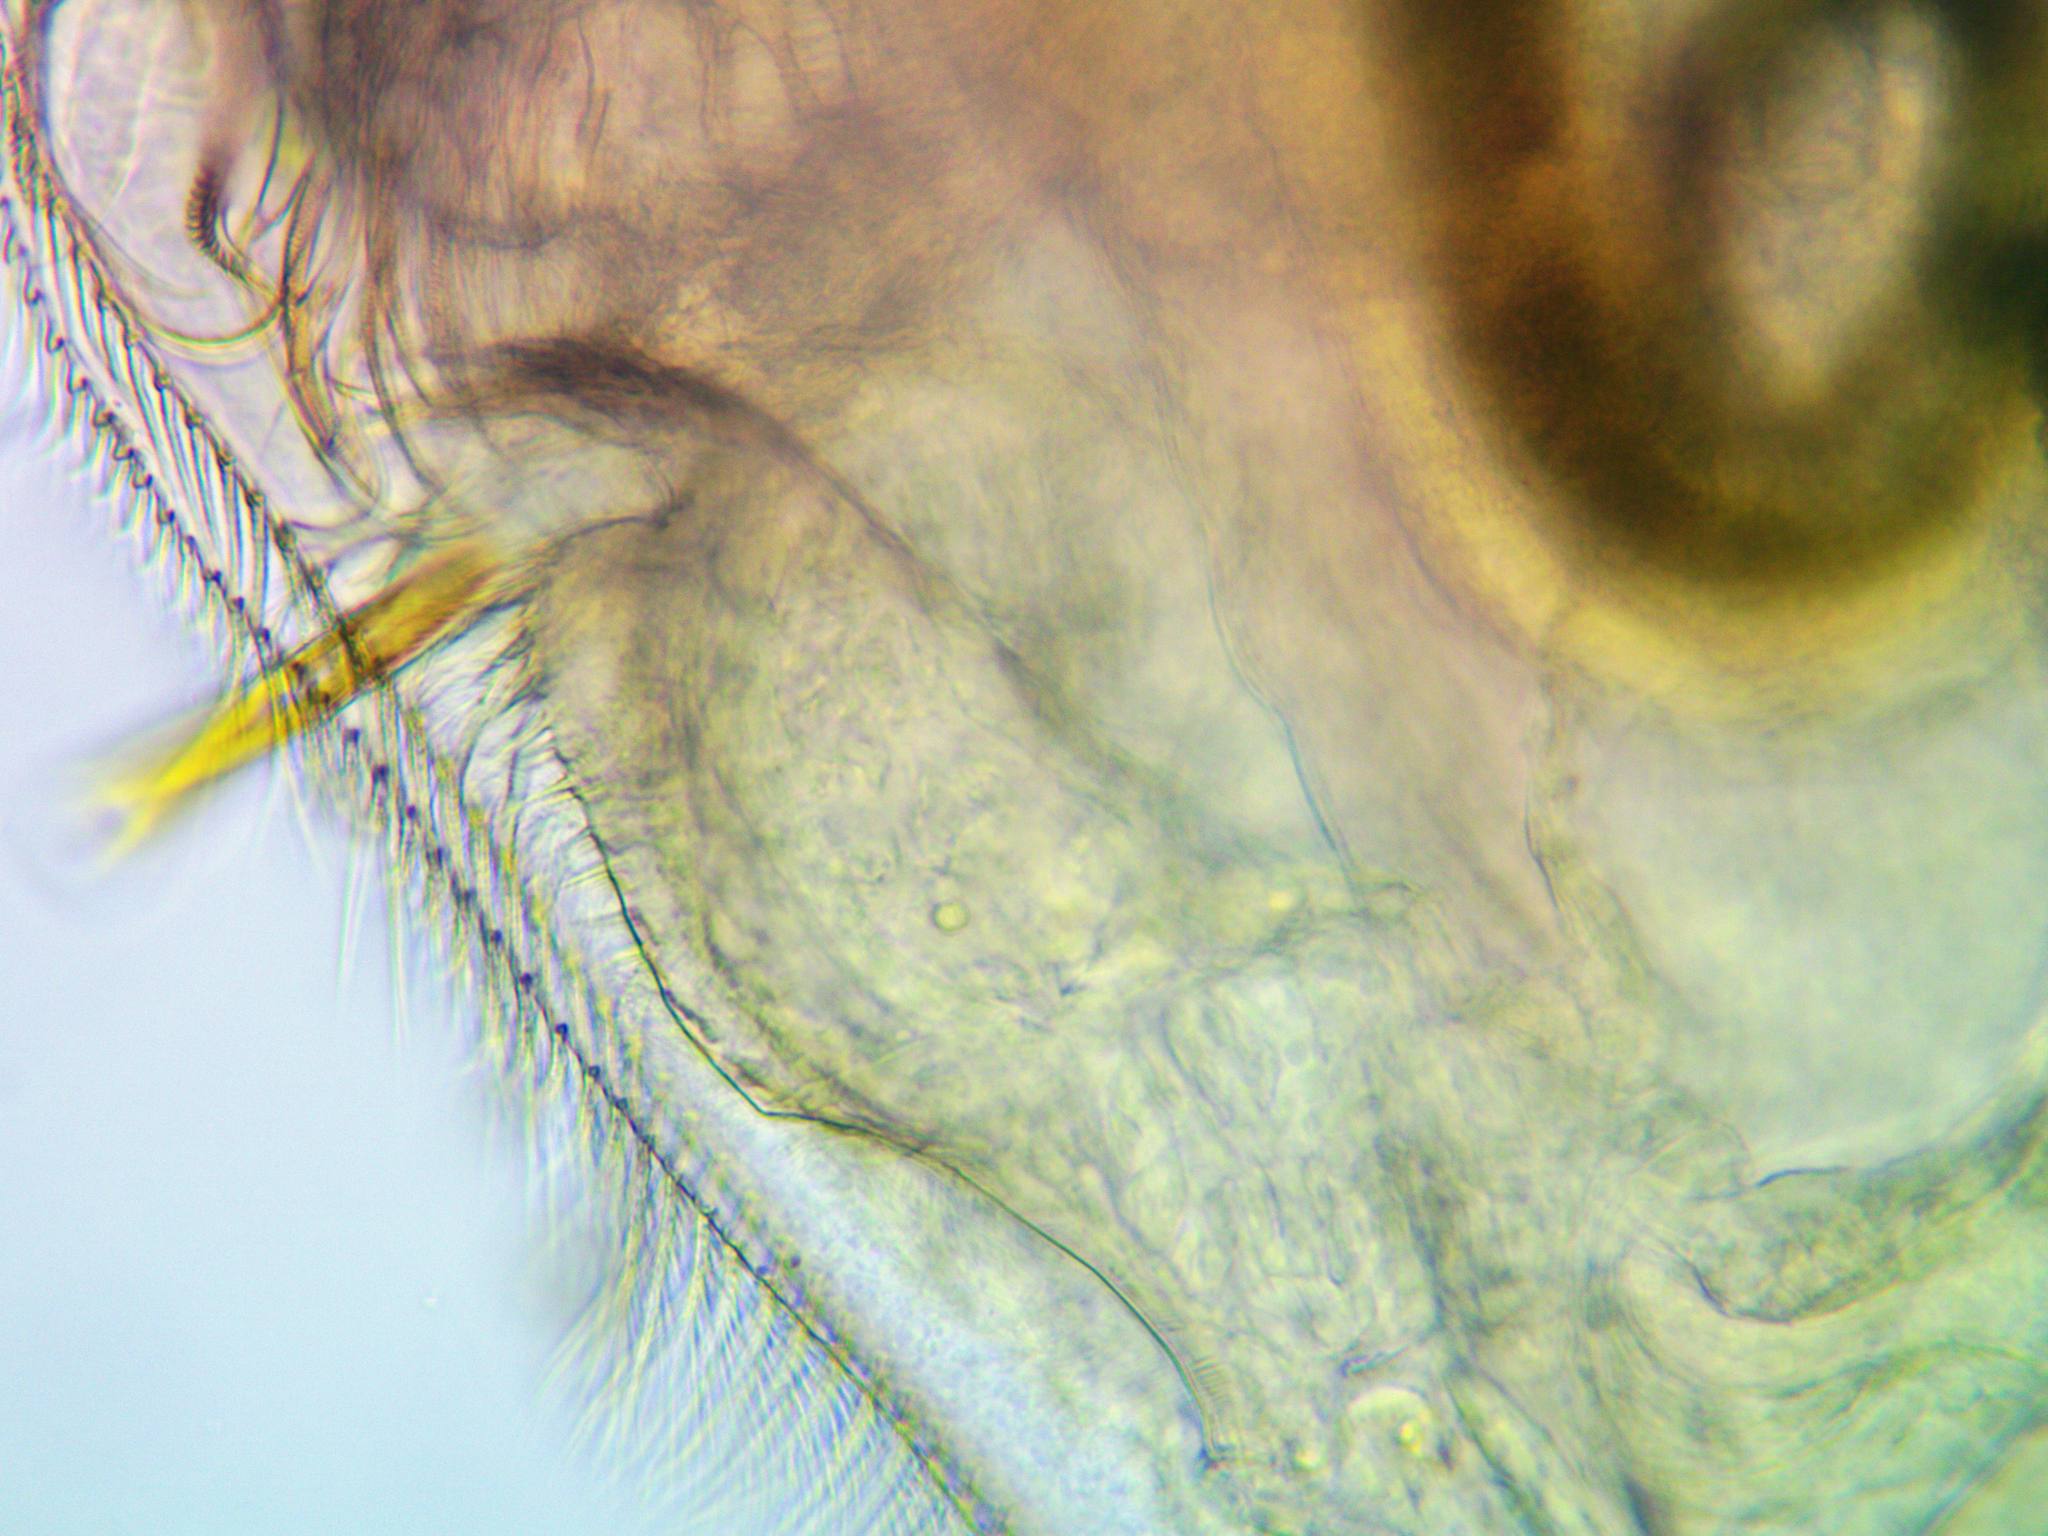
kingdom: Animalia
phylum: Arthropoda
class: Branchiopoda
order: Diplostraca
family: Chydoridae
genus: Pleuroxus
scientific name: Pleuroxus aduncus
